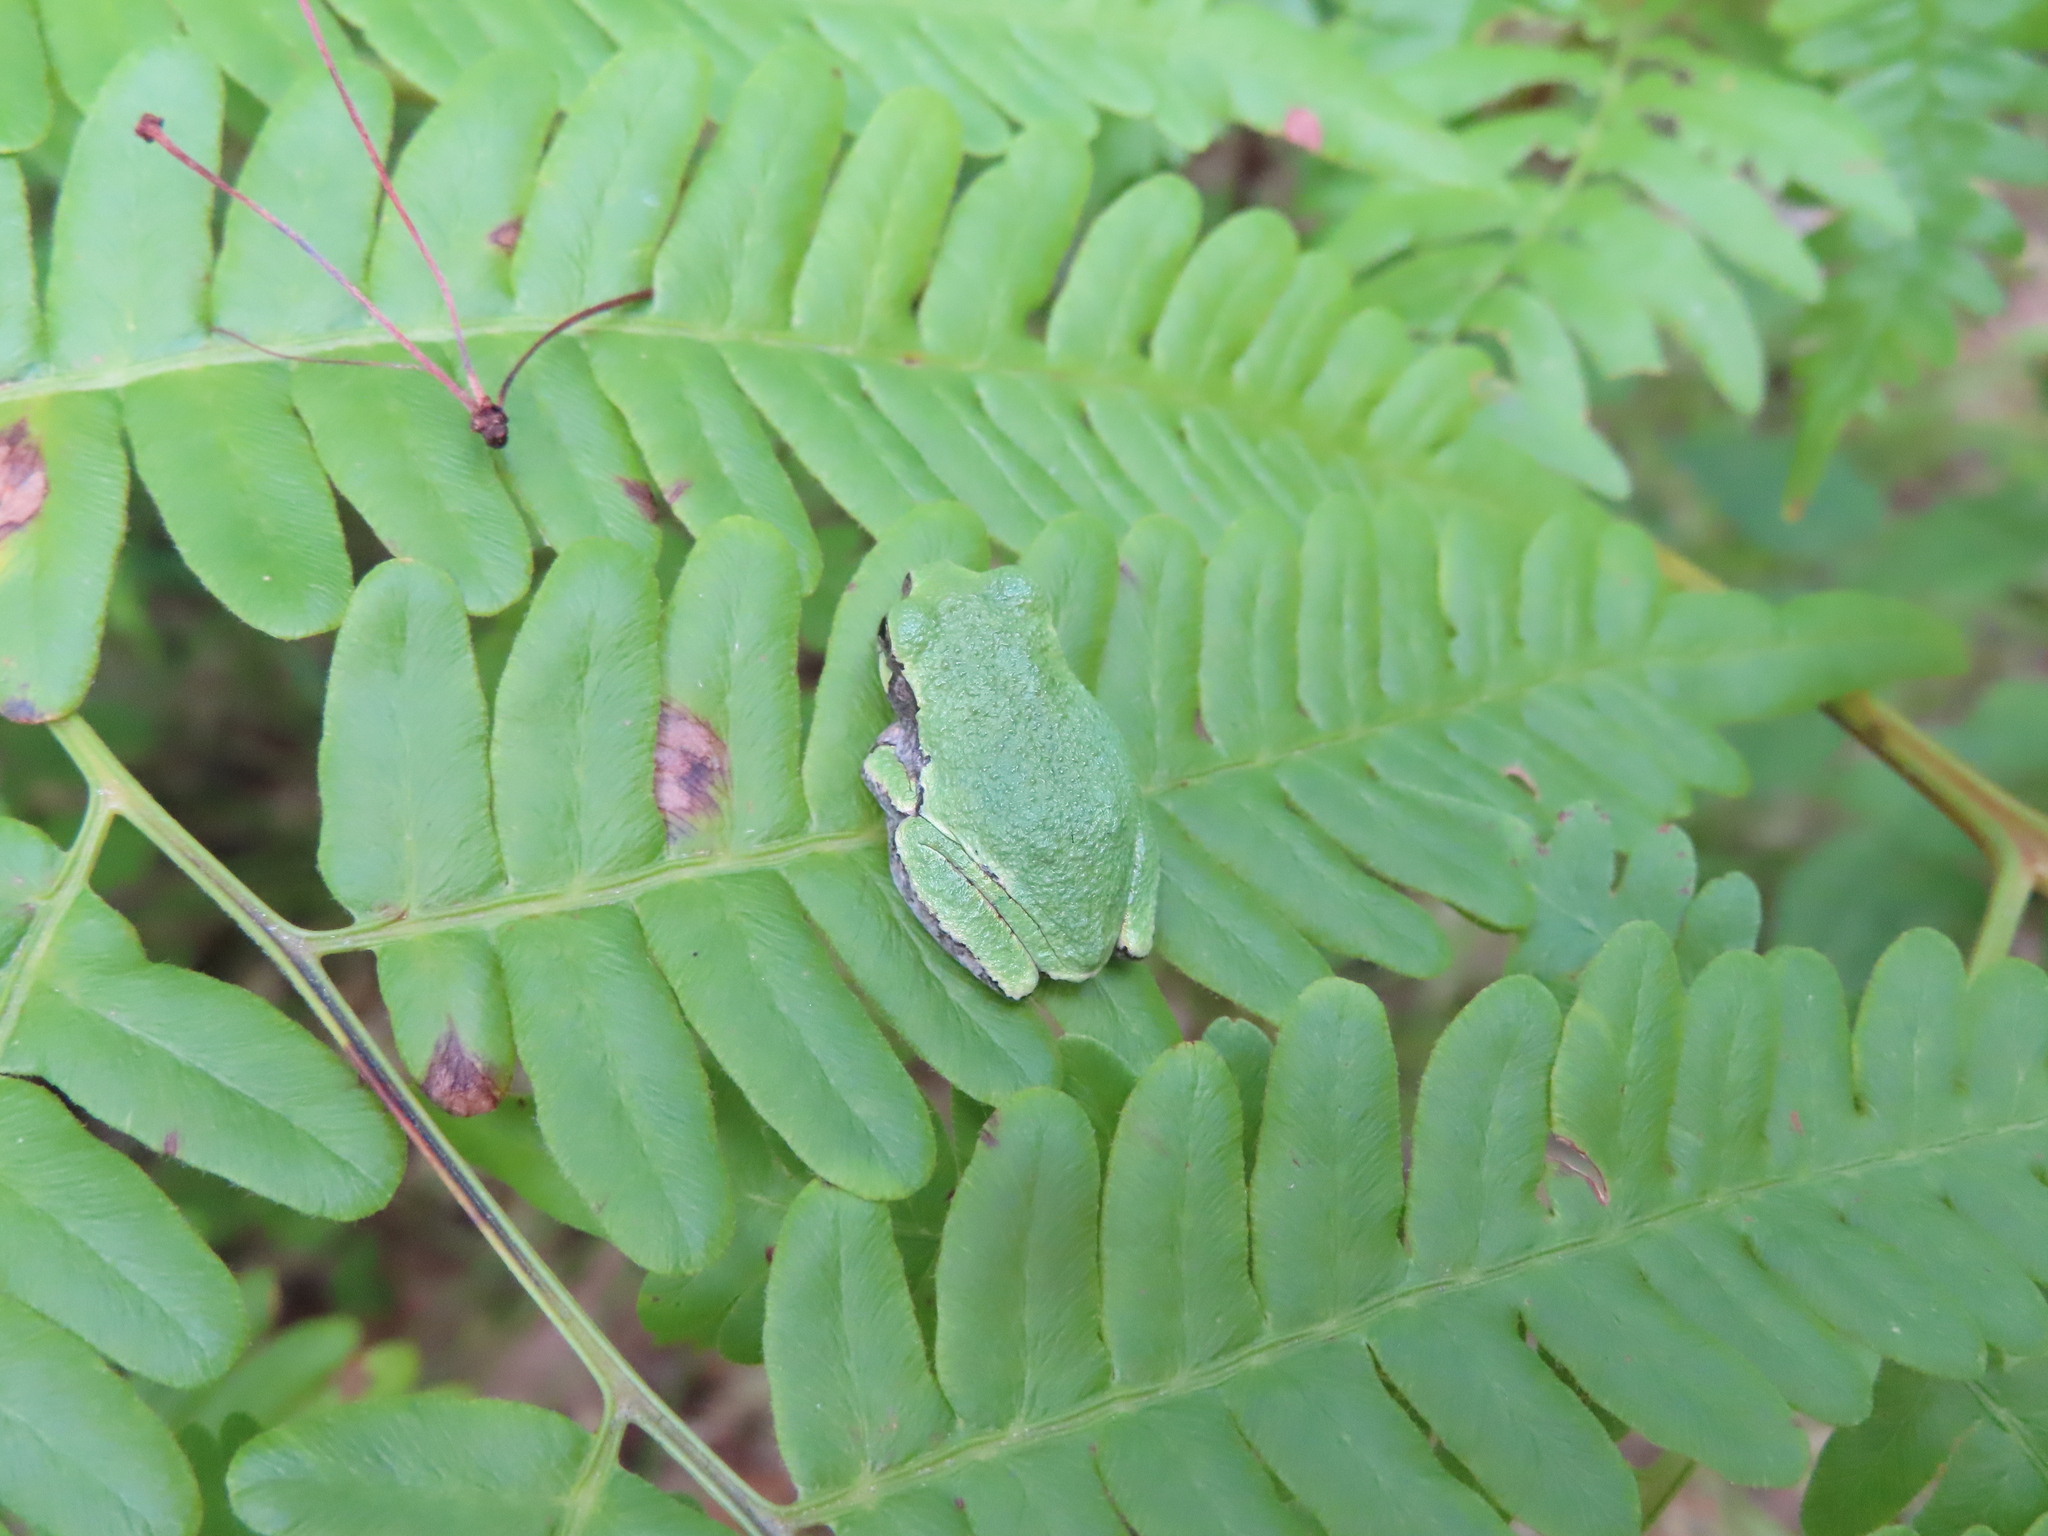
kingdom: Animalia
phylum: Chordata
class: Amphibia
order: Anura
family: Hylidae
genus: Hyla
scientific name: Hyla
